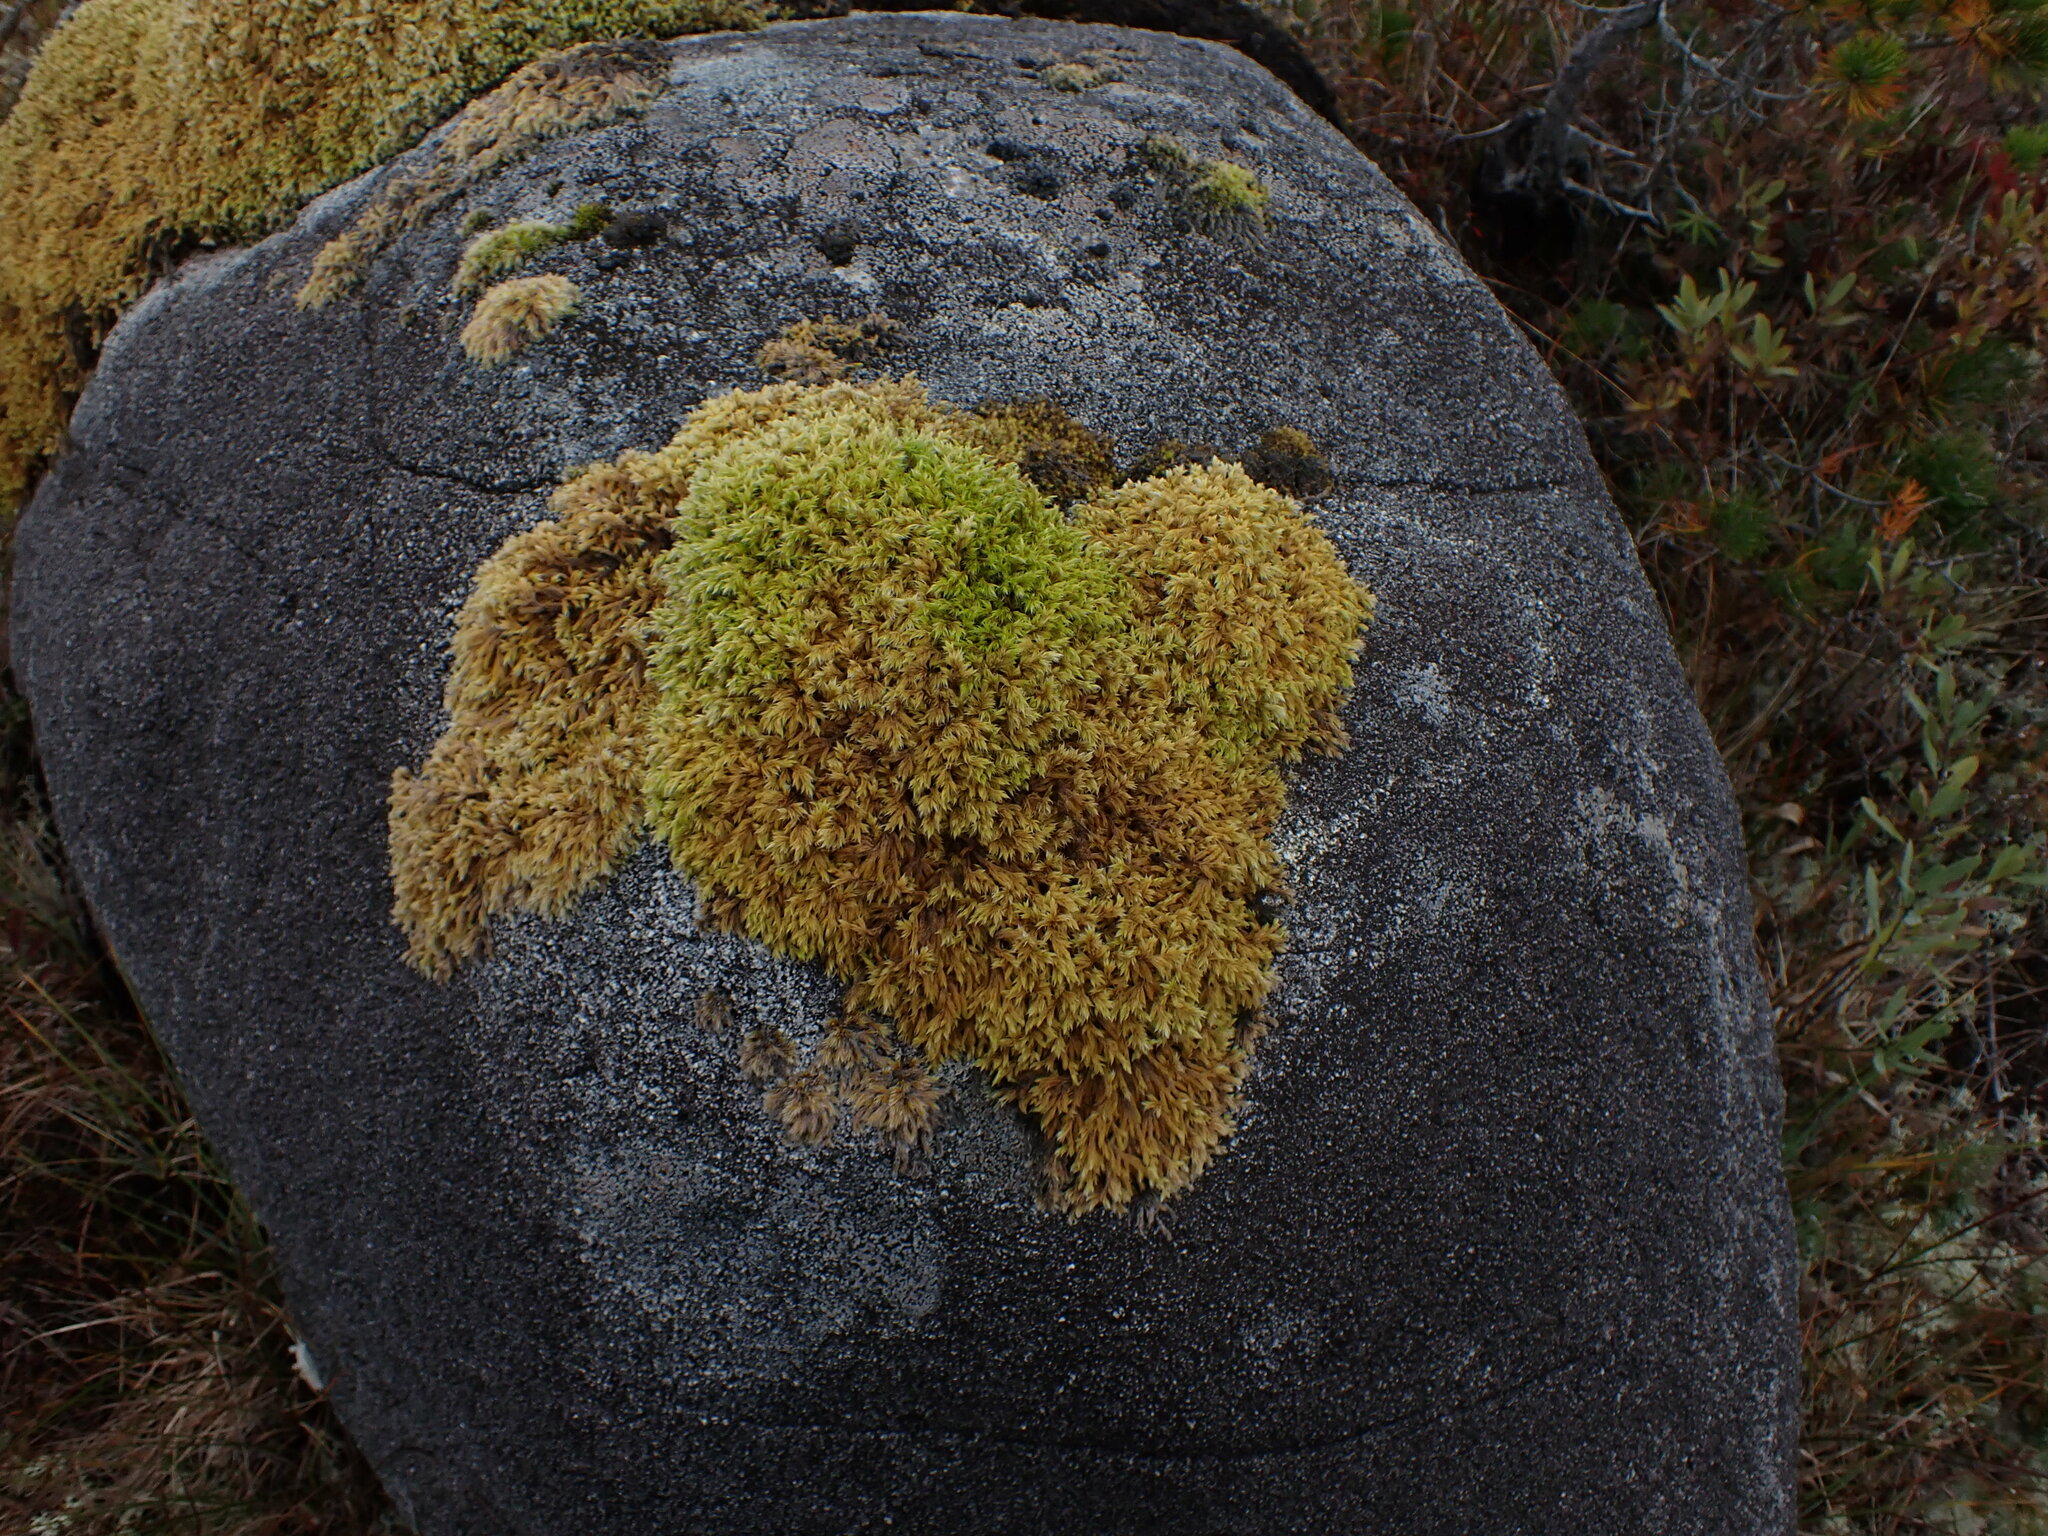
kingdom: Plantae
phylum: Bryophyta
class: Bryopsida
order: Grimmiales
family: Grimmiaceae
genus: Racomitrium
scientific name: Racomitrium lanuginosum
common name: Hoary rock moss
